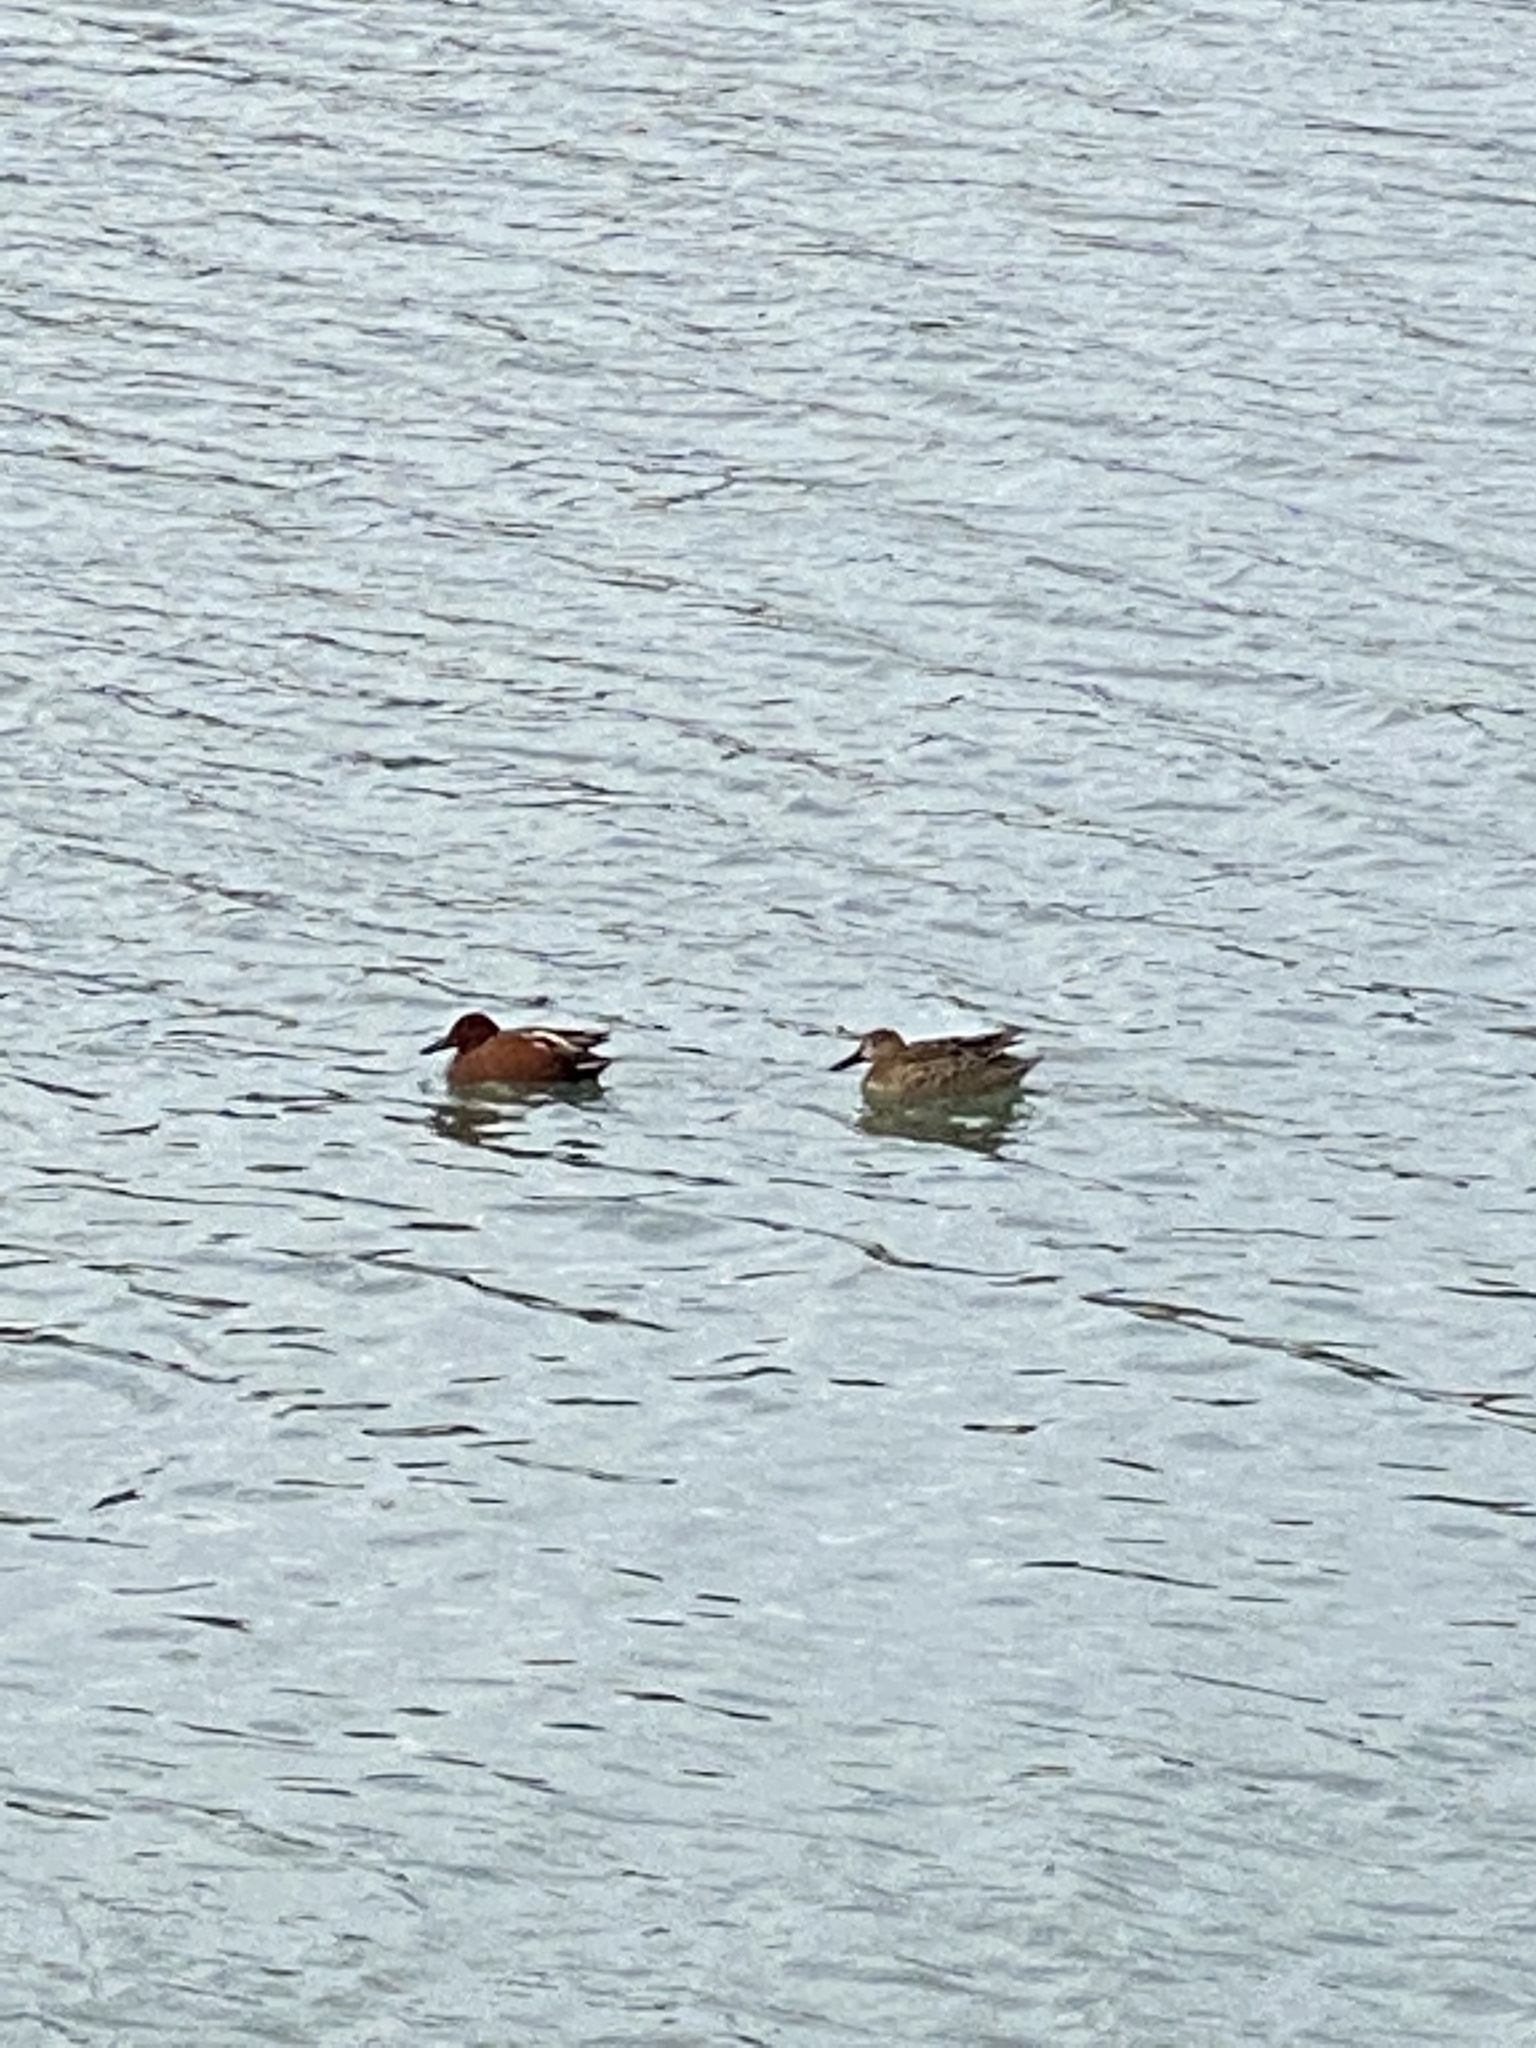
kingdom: Animalia
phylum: Chordata
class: Aves
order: Anseriformes
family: Anatidae
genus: Spatula
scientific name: Spatula cyanoptera
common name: Cinnamon teal
